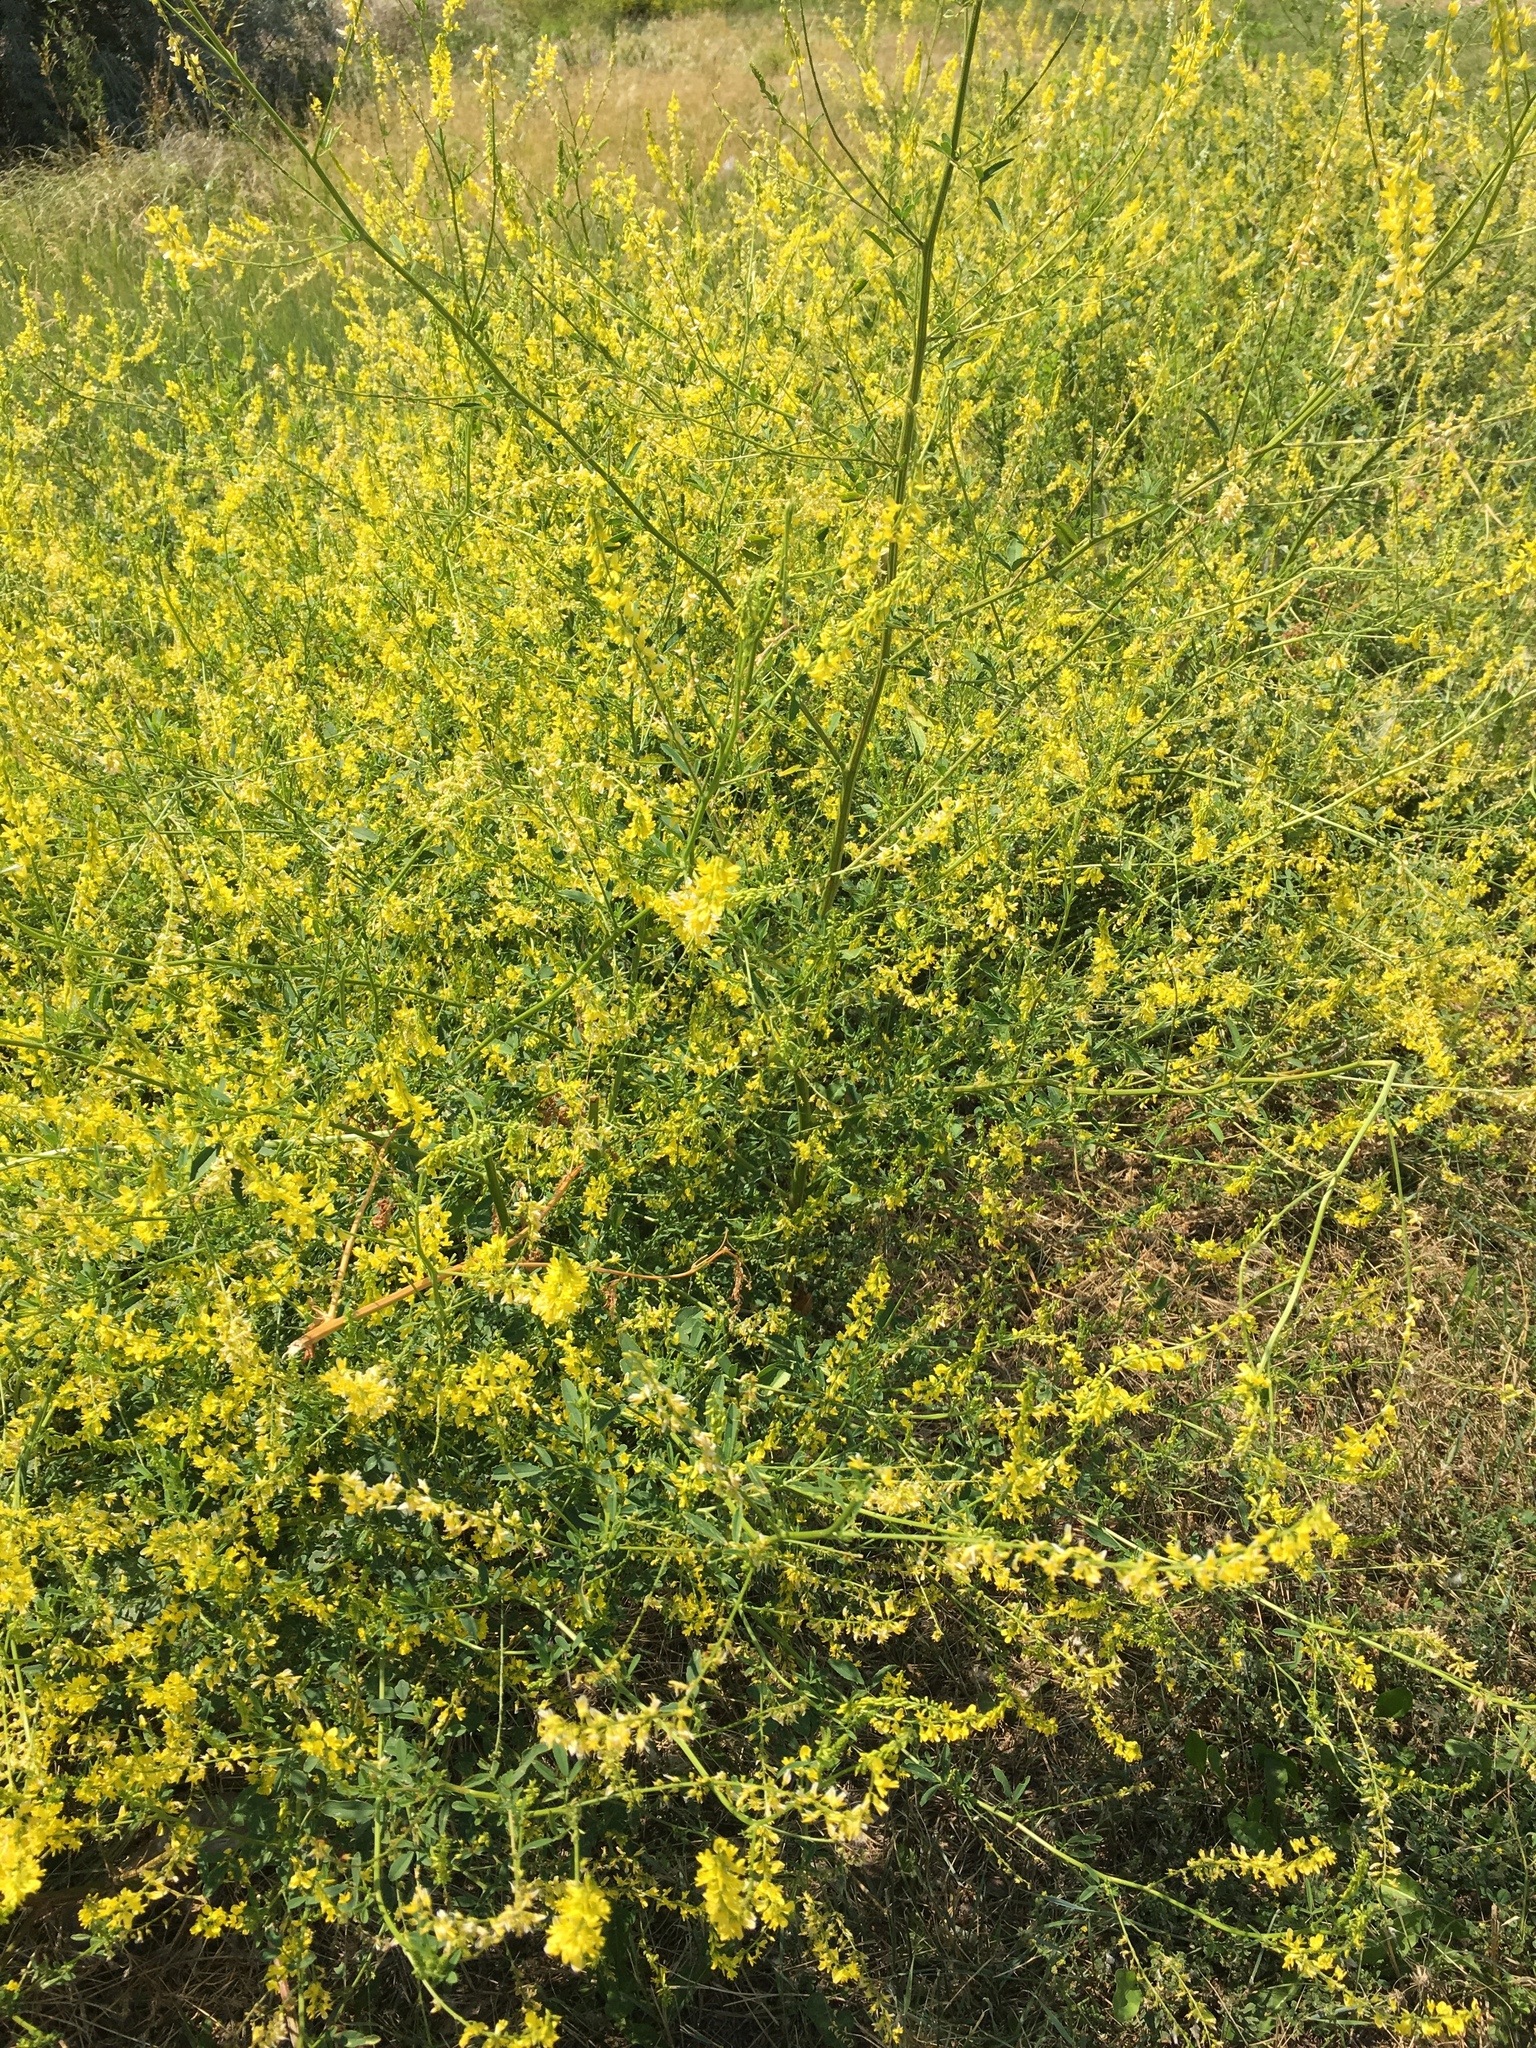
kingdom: Plantae
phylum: Tracheophyta
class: Magnoliopsida
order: Fabales
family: Fabaceae
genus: Melilotus
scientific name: Melilotus officinalis
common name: Sweetclover
